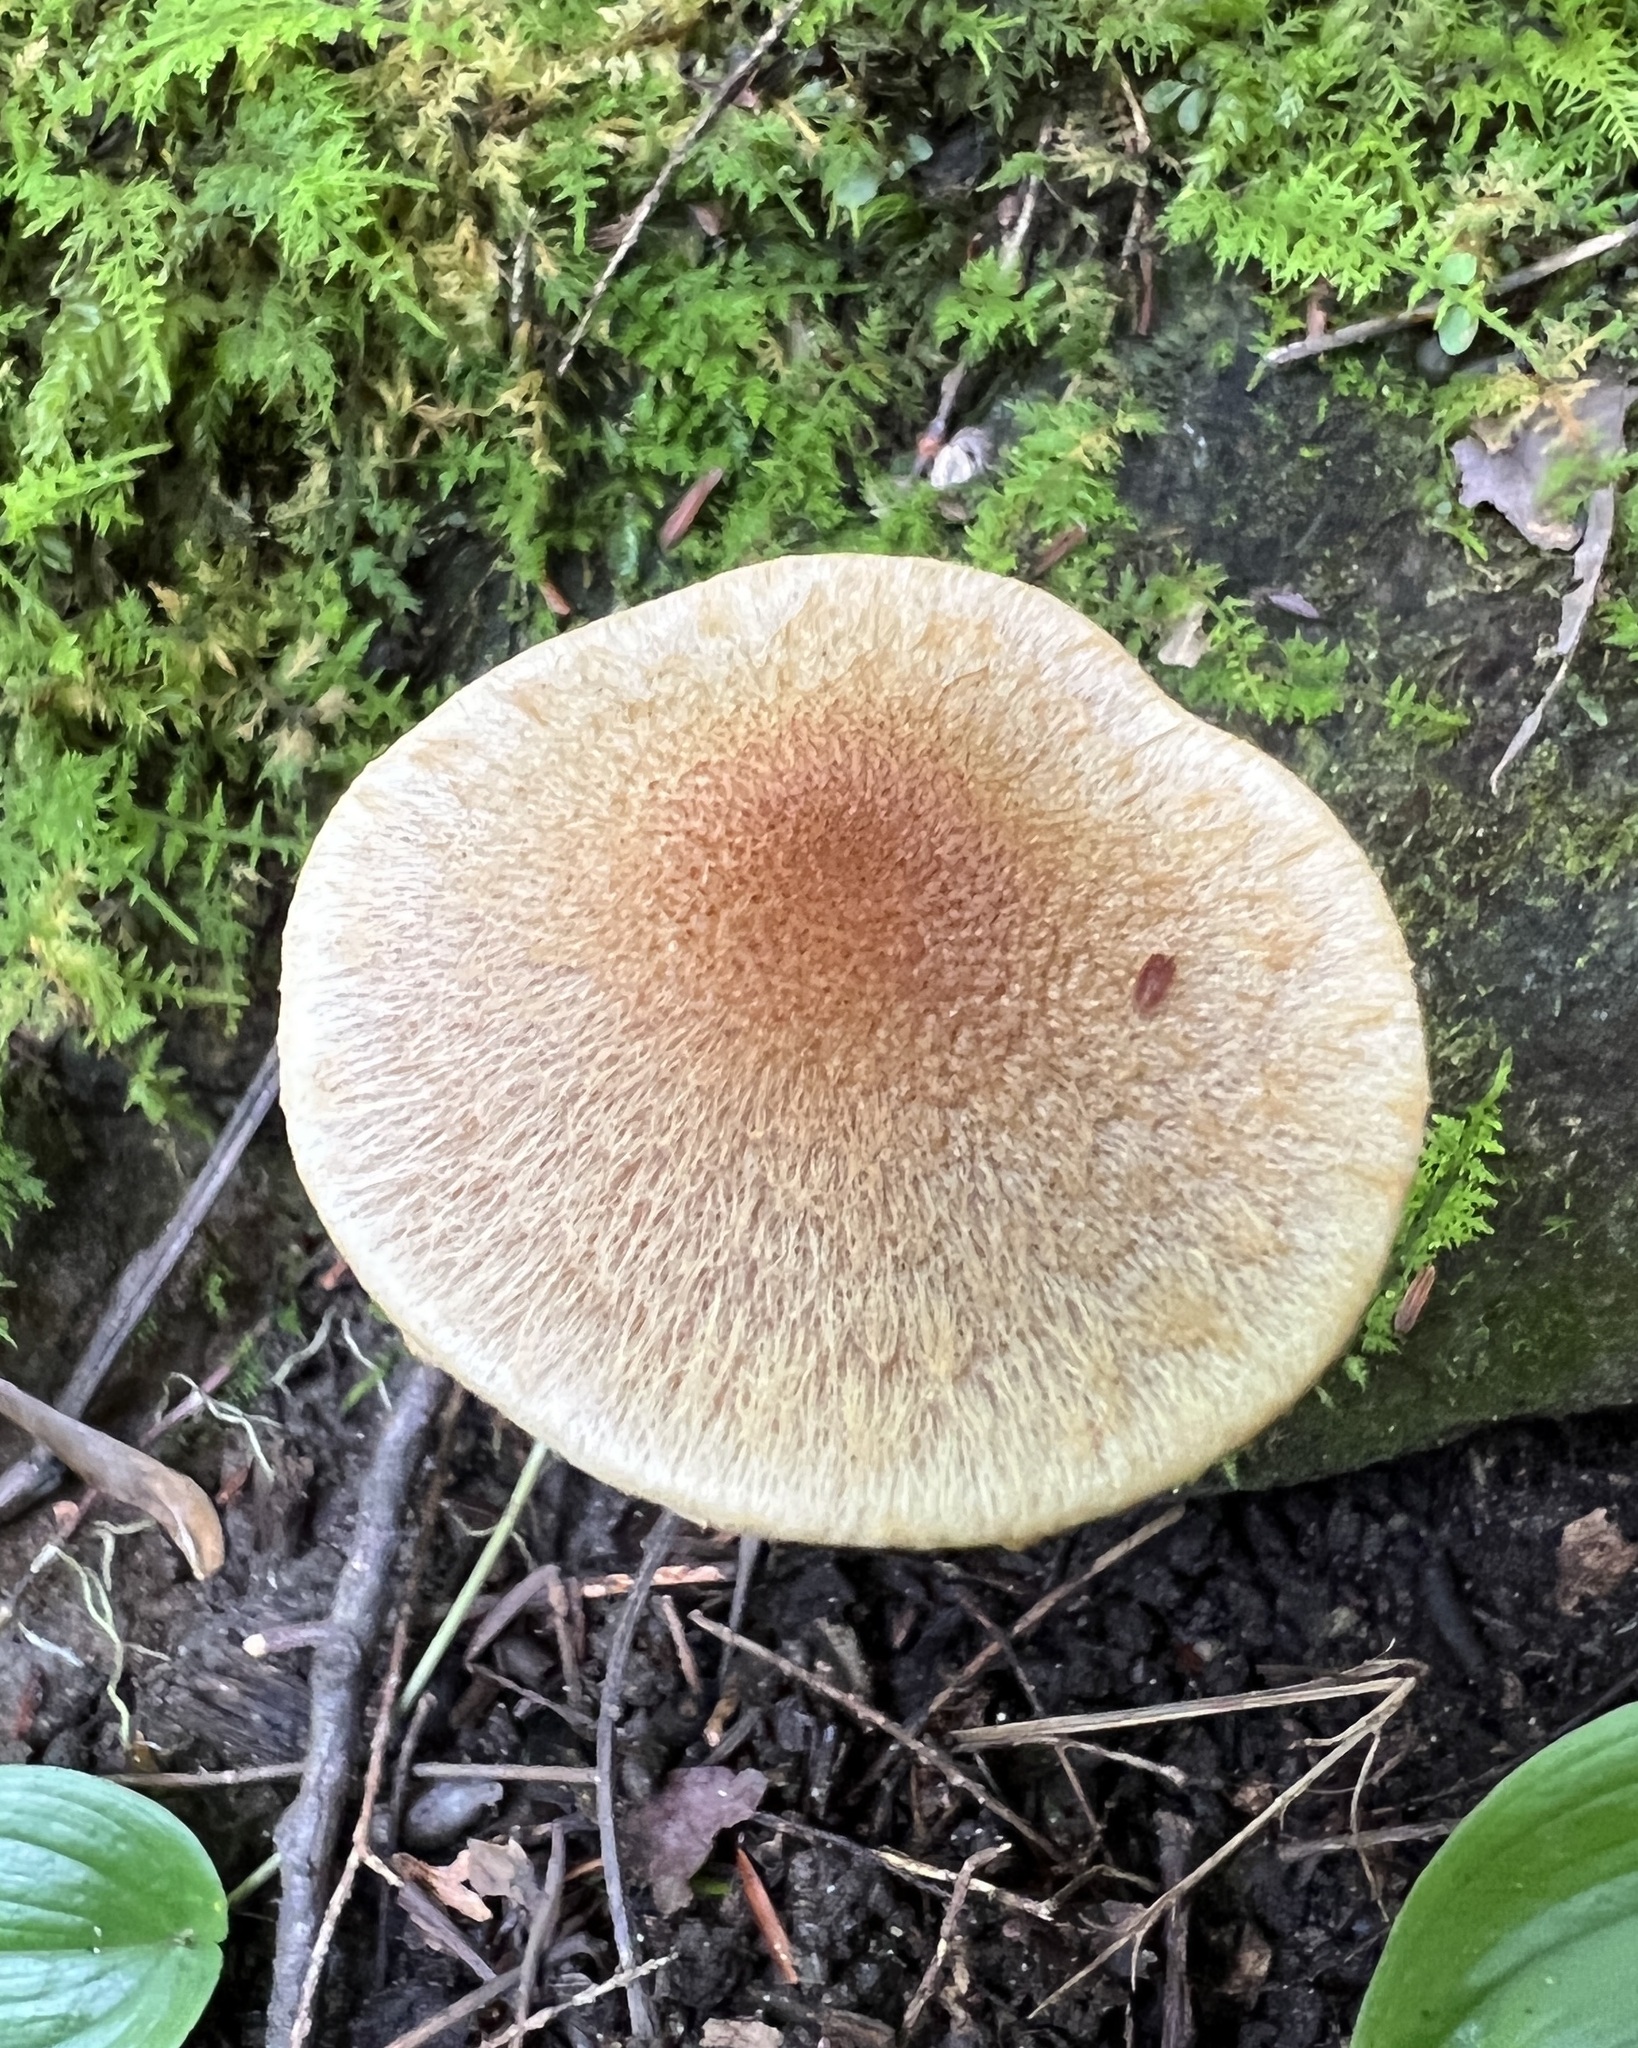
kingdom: Fungi
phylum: Basidiomycota
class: Agaricomycetes
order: Agaricales
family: Psathyrellaceae
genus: Lacrymaria
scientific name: Lacrymaria lacrymabunda
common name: Weeping widow
